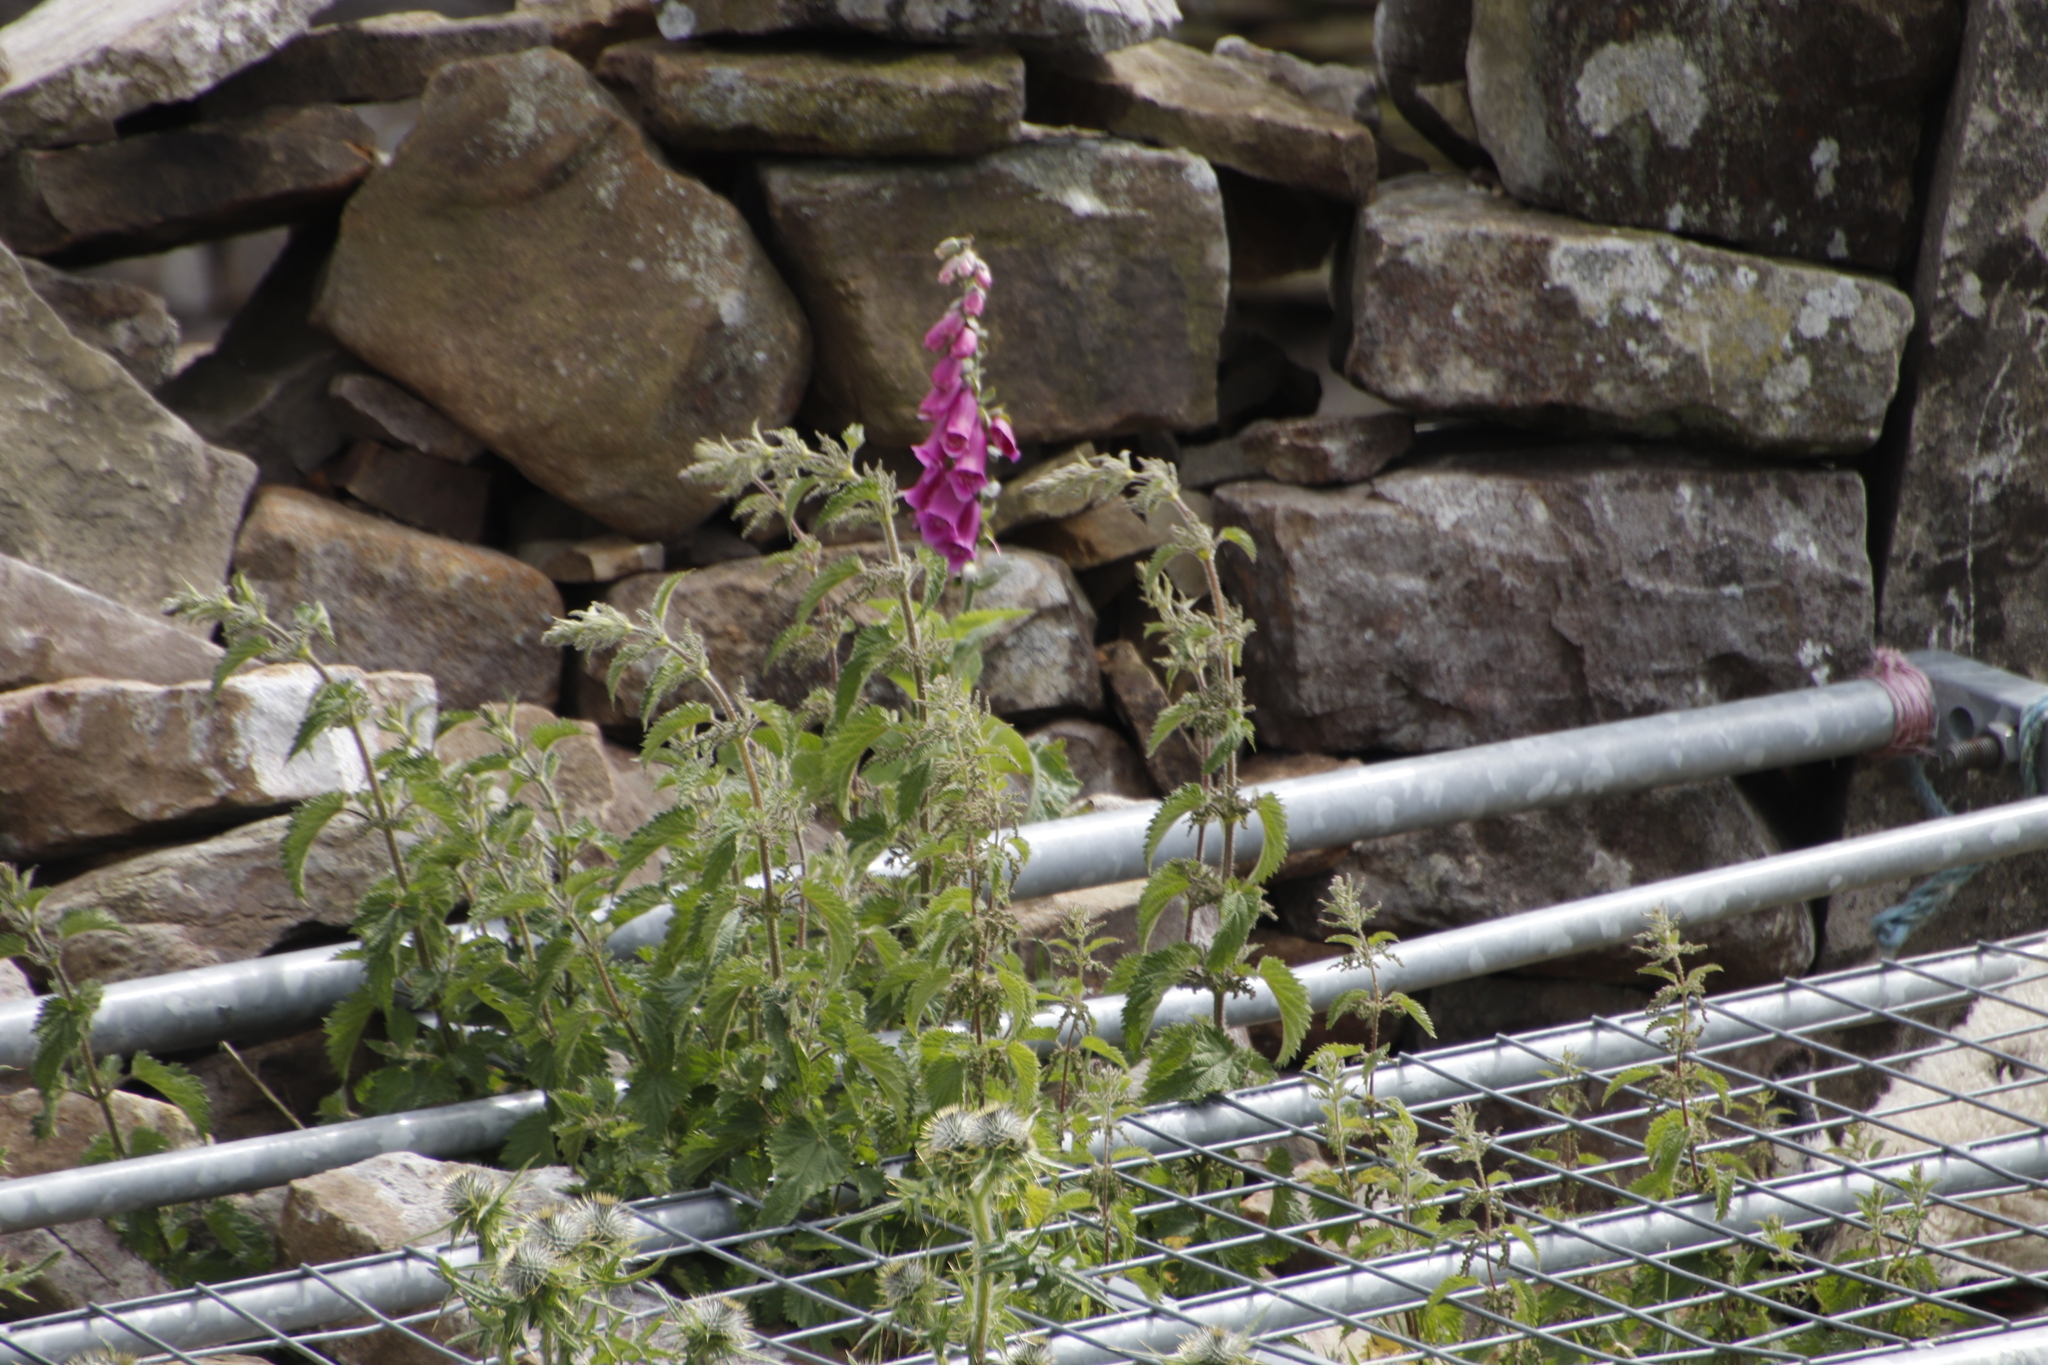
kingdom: Plantae
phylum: Tracheophyta
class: Magnoliopsida
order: Lamiales
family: Plantaginaceae
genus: Digitalis
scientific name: Digitalis purpurea
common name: Foxglove
